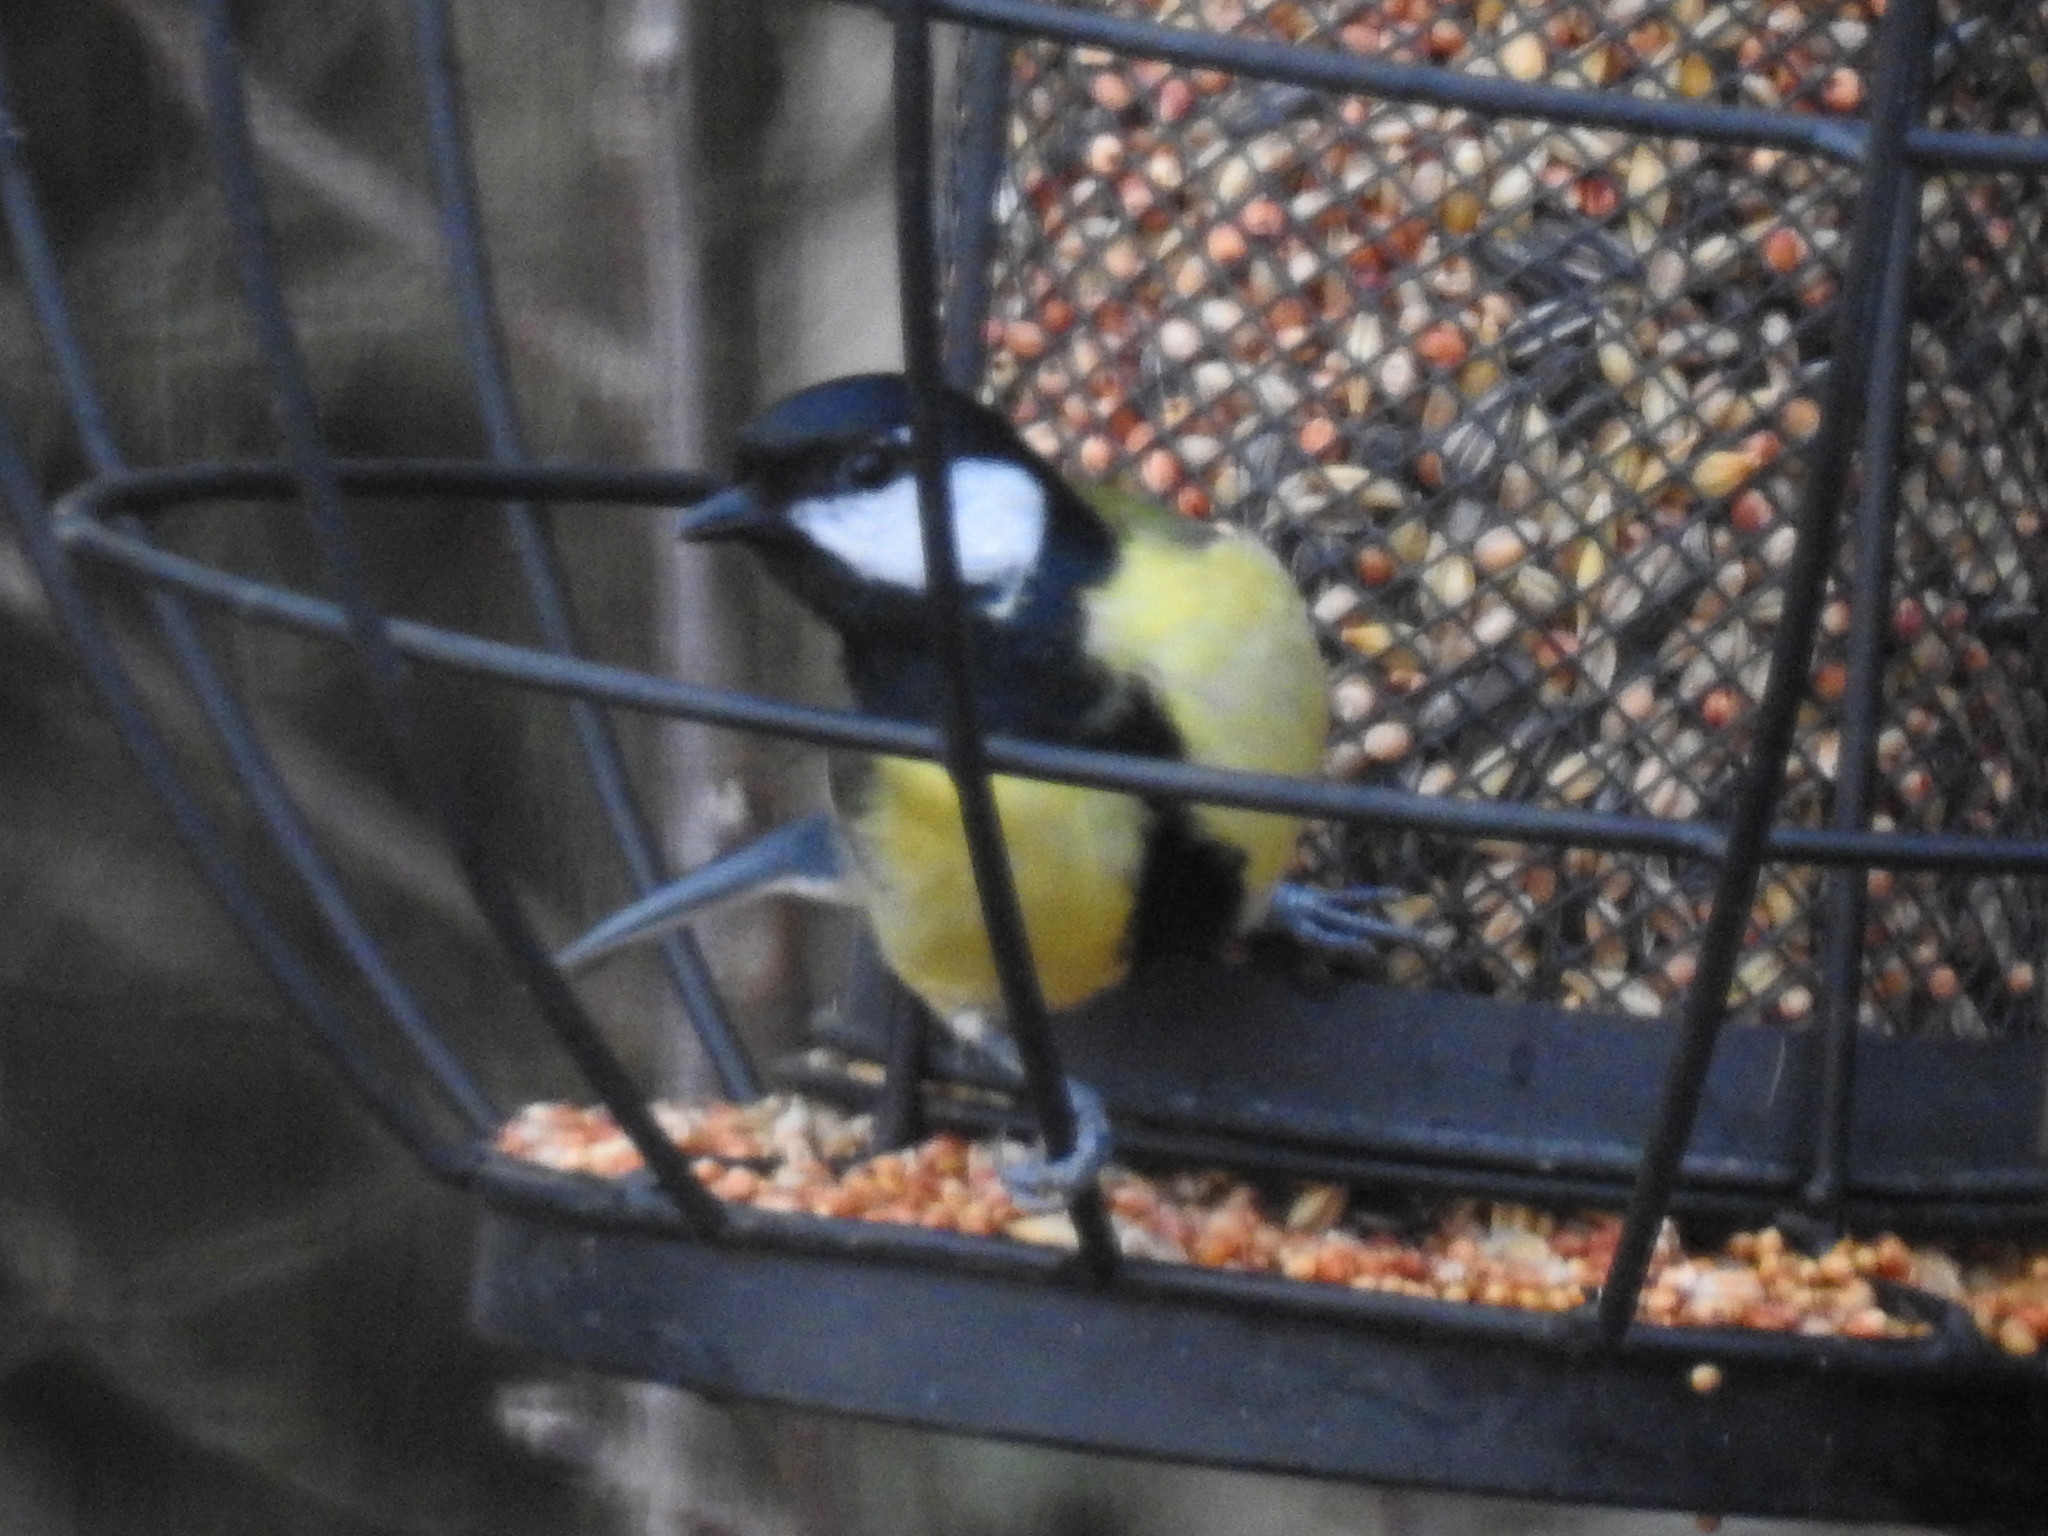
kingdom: Animalia
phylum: Chordata
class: Aves
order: Passeriformes
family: Paridae
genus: Parus
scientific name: Parus major
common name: Great tit
